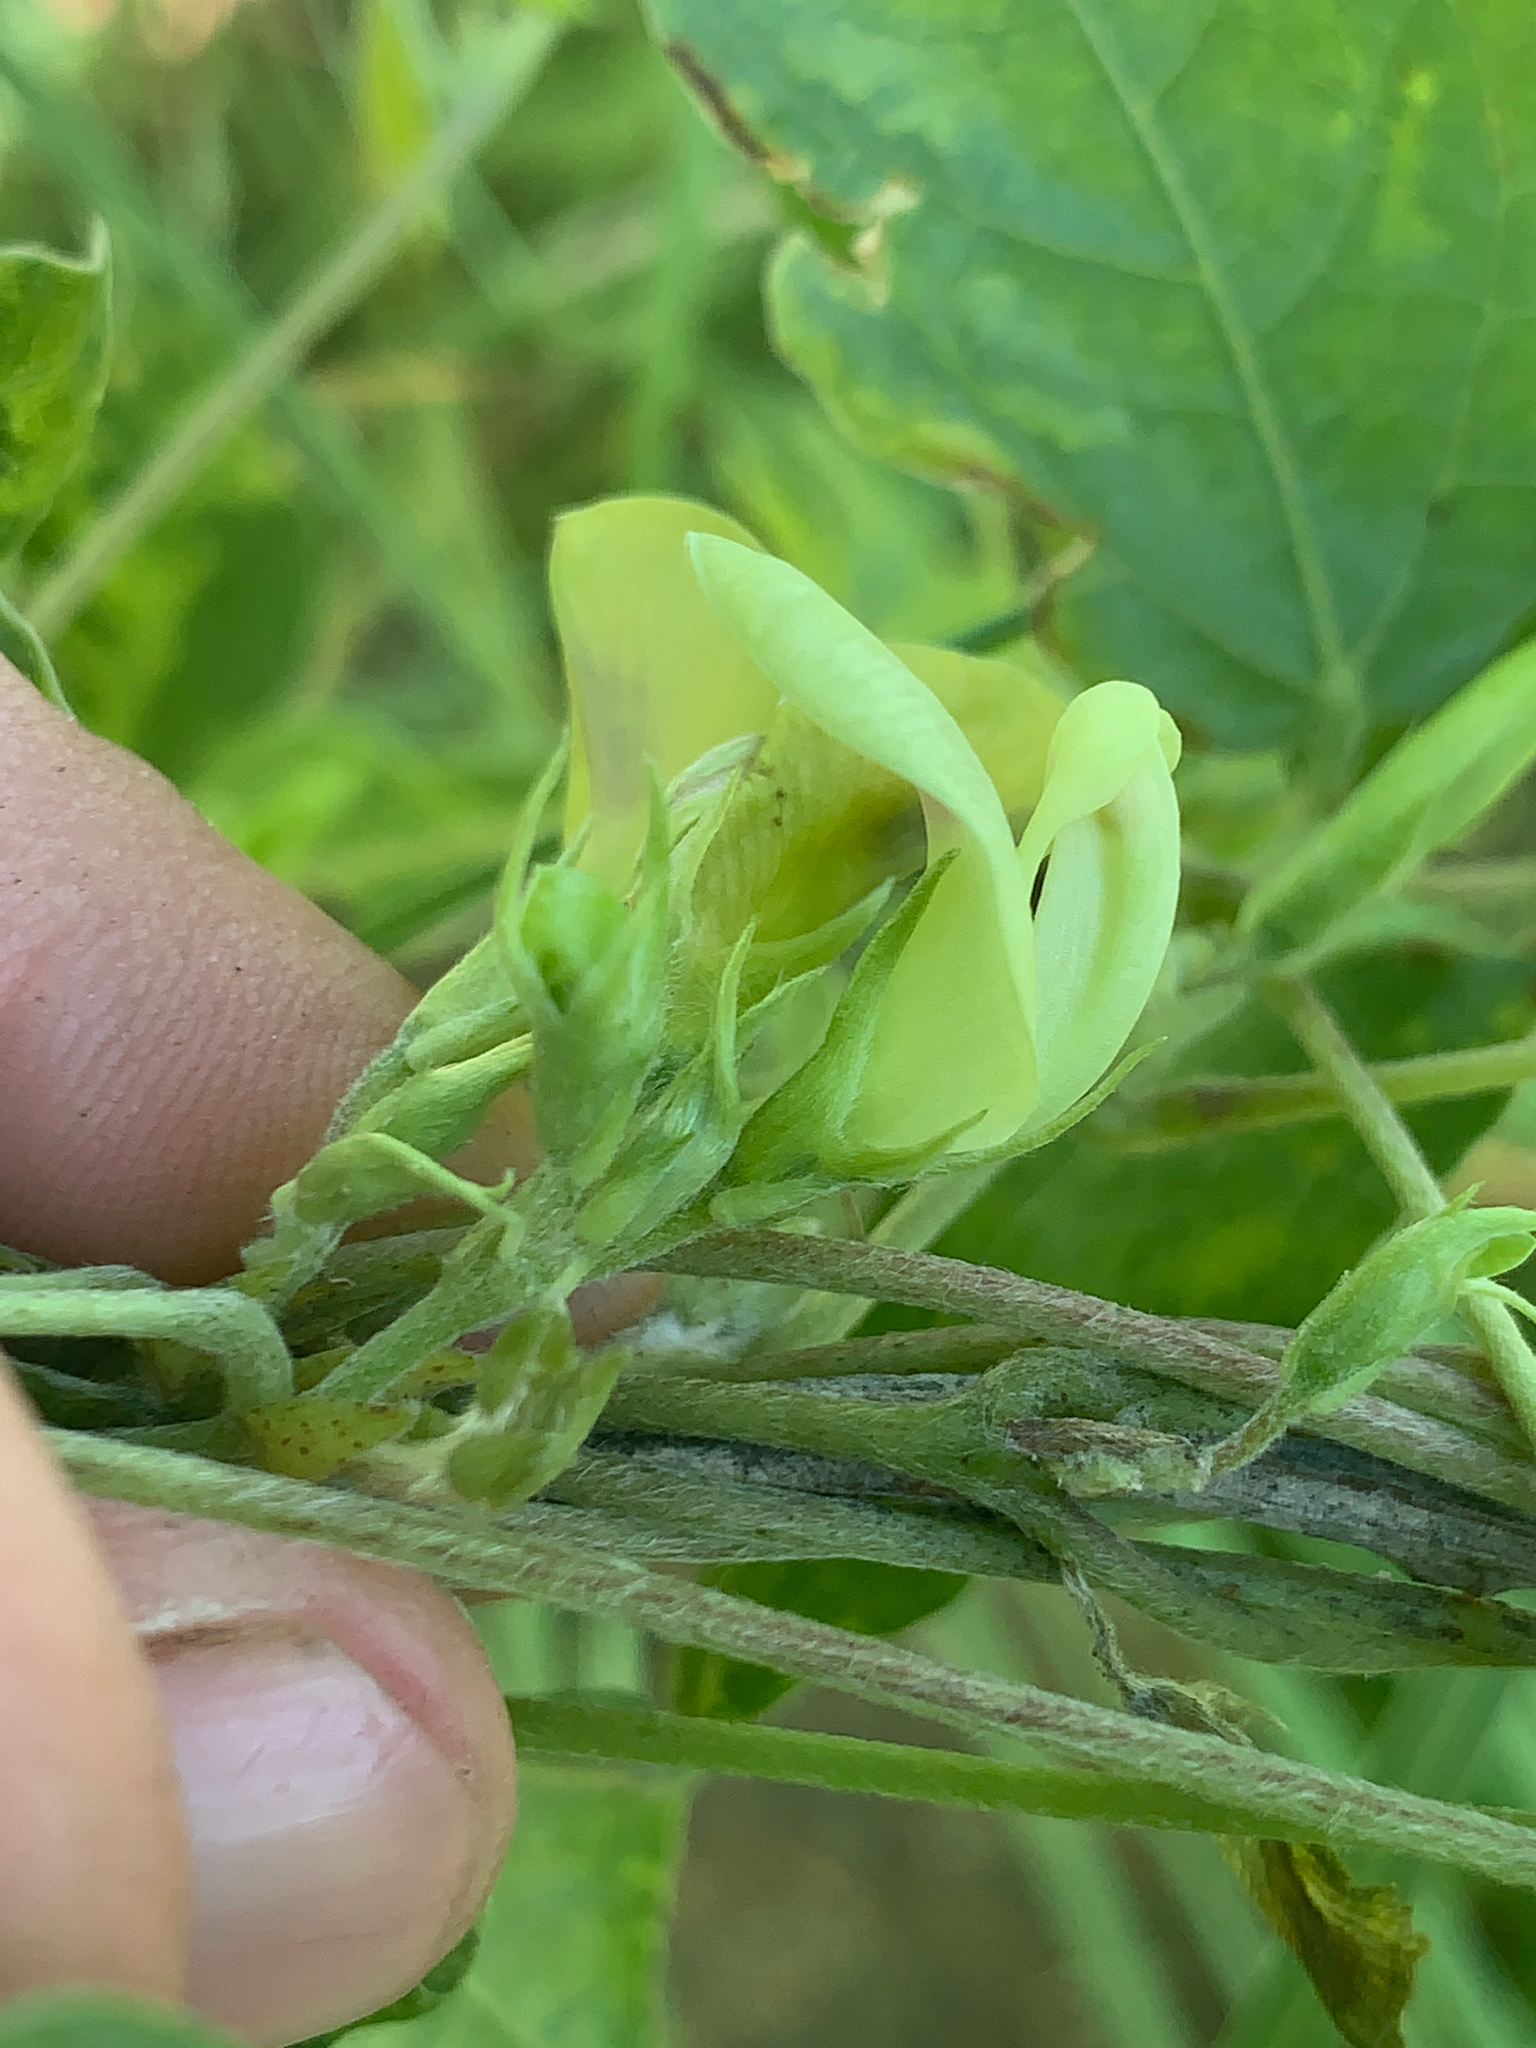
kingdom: Plantae
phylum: Tracheophyta
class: Magnoliopsida
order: Fabales
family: Fabaceae
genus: Macrotyloma
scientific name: Macrotyloma axillare
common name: Perennial horsegram
